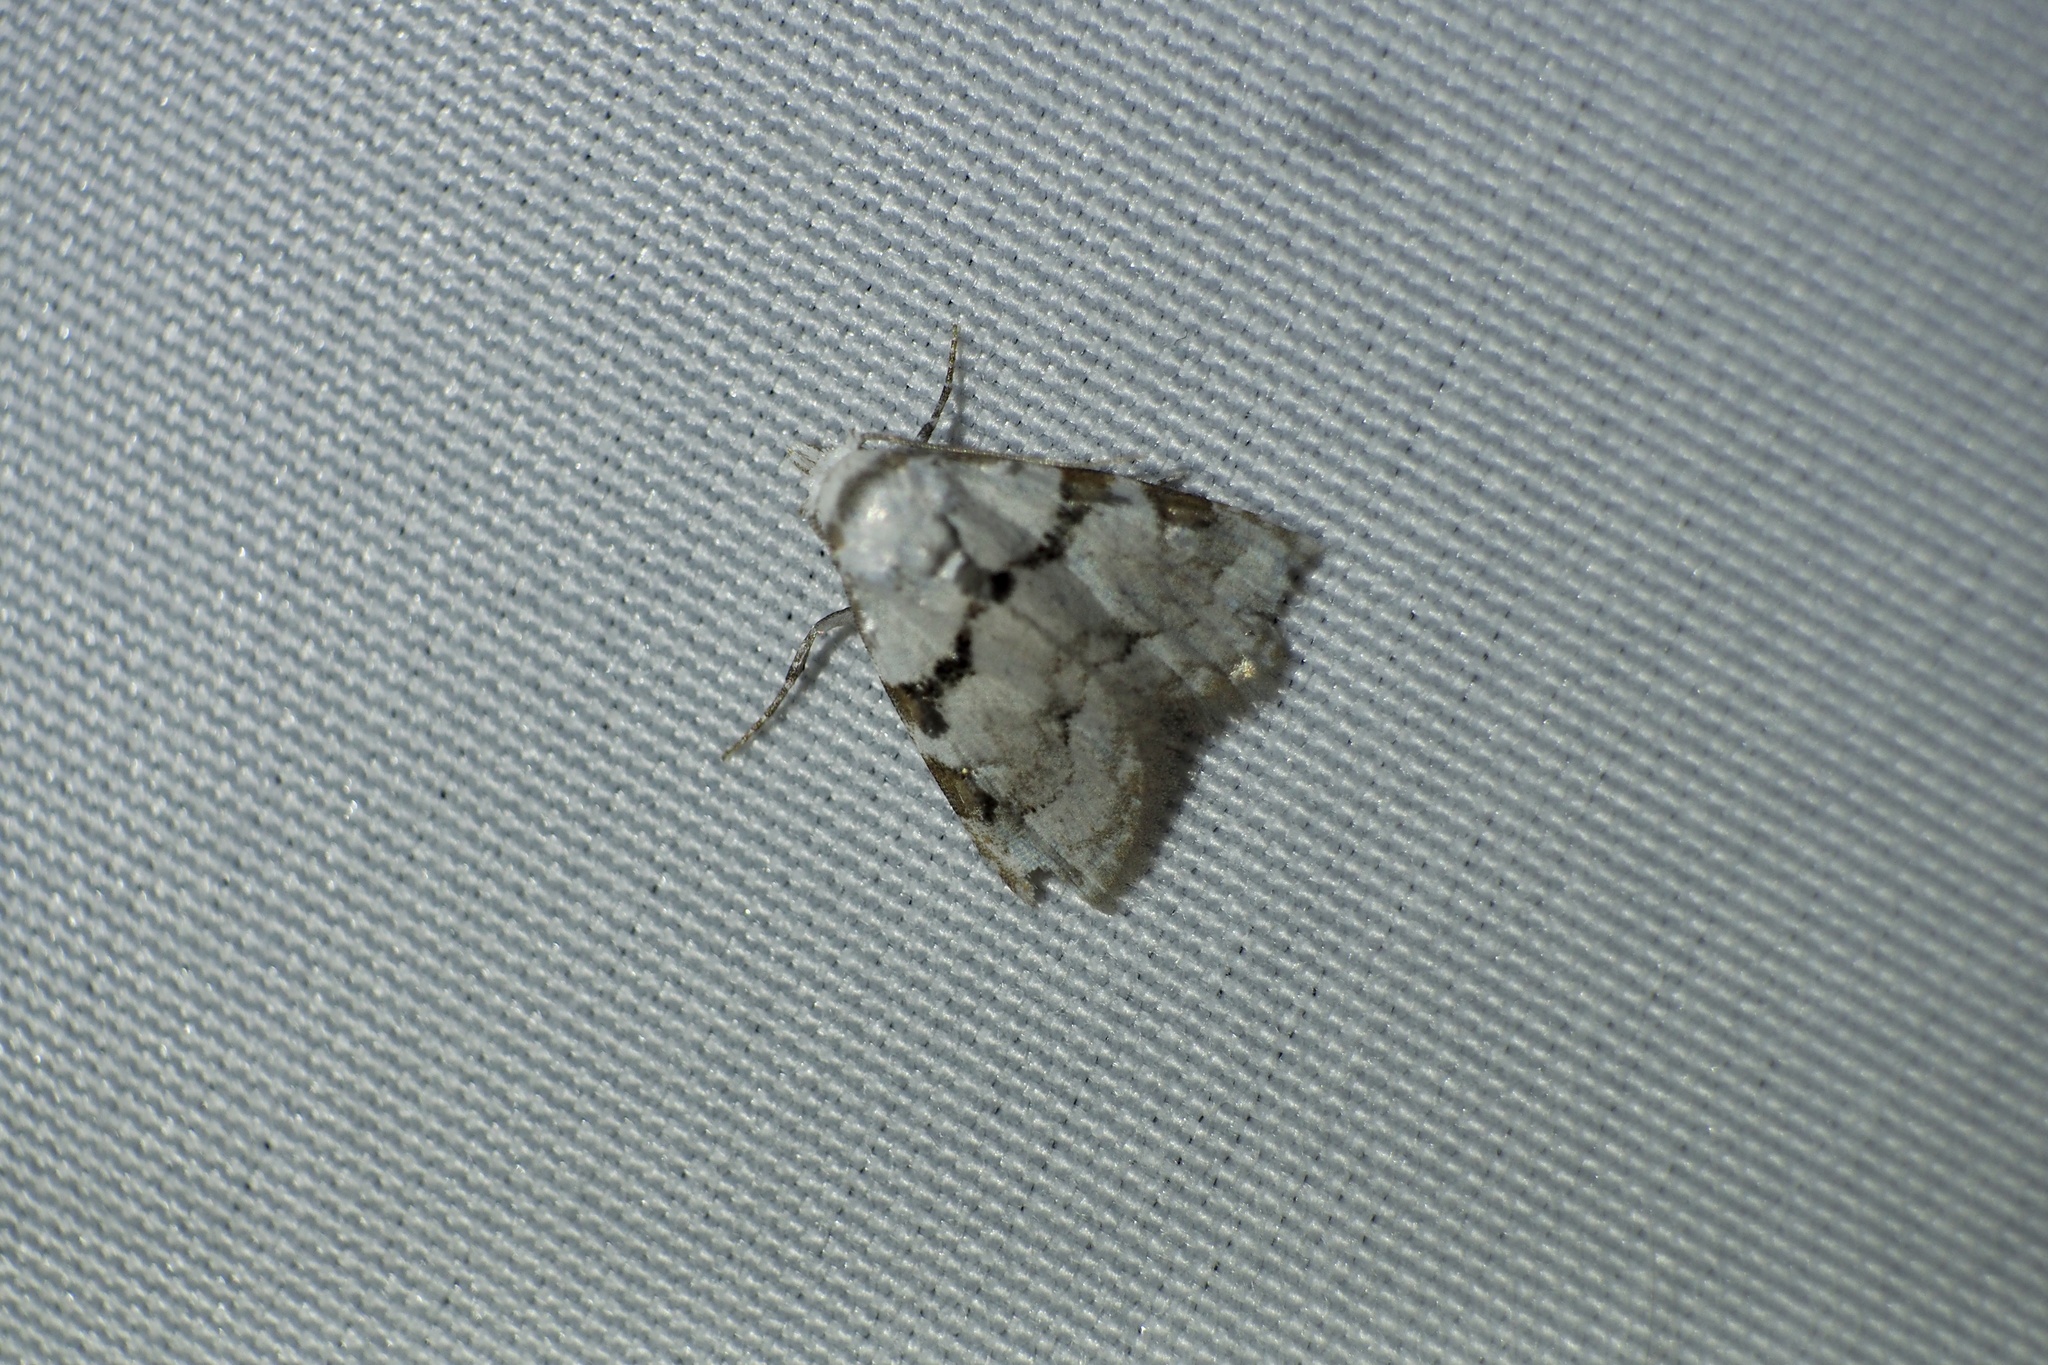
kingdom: Animalia
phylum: Arthropoda
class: Insecta
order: Lepidoptera
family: Nolidae
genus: Nola
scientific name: Nola japonibia
